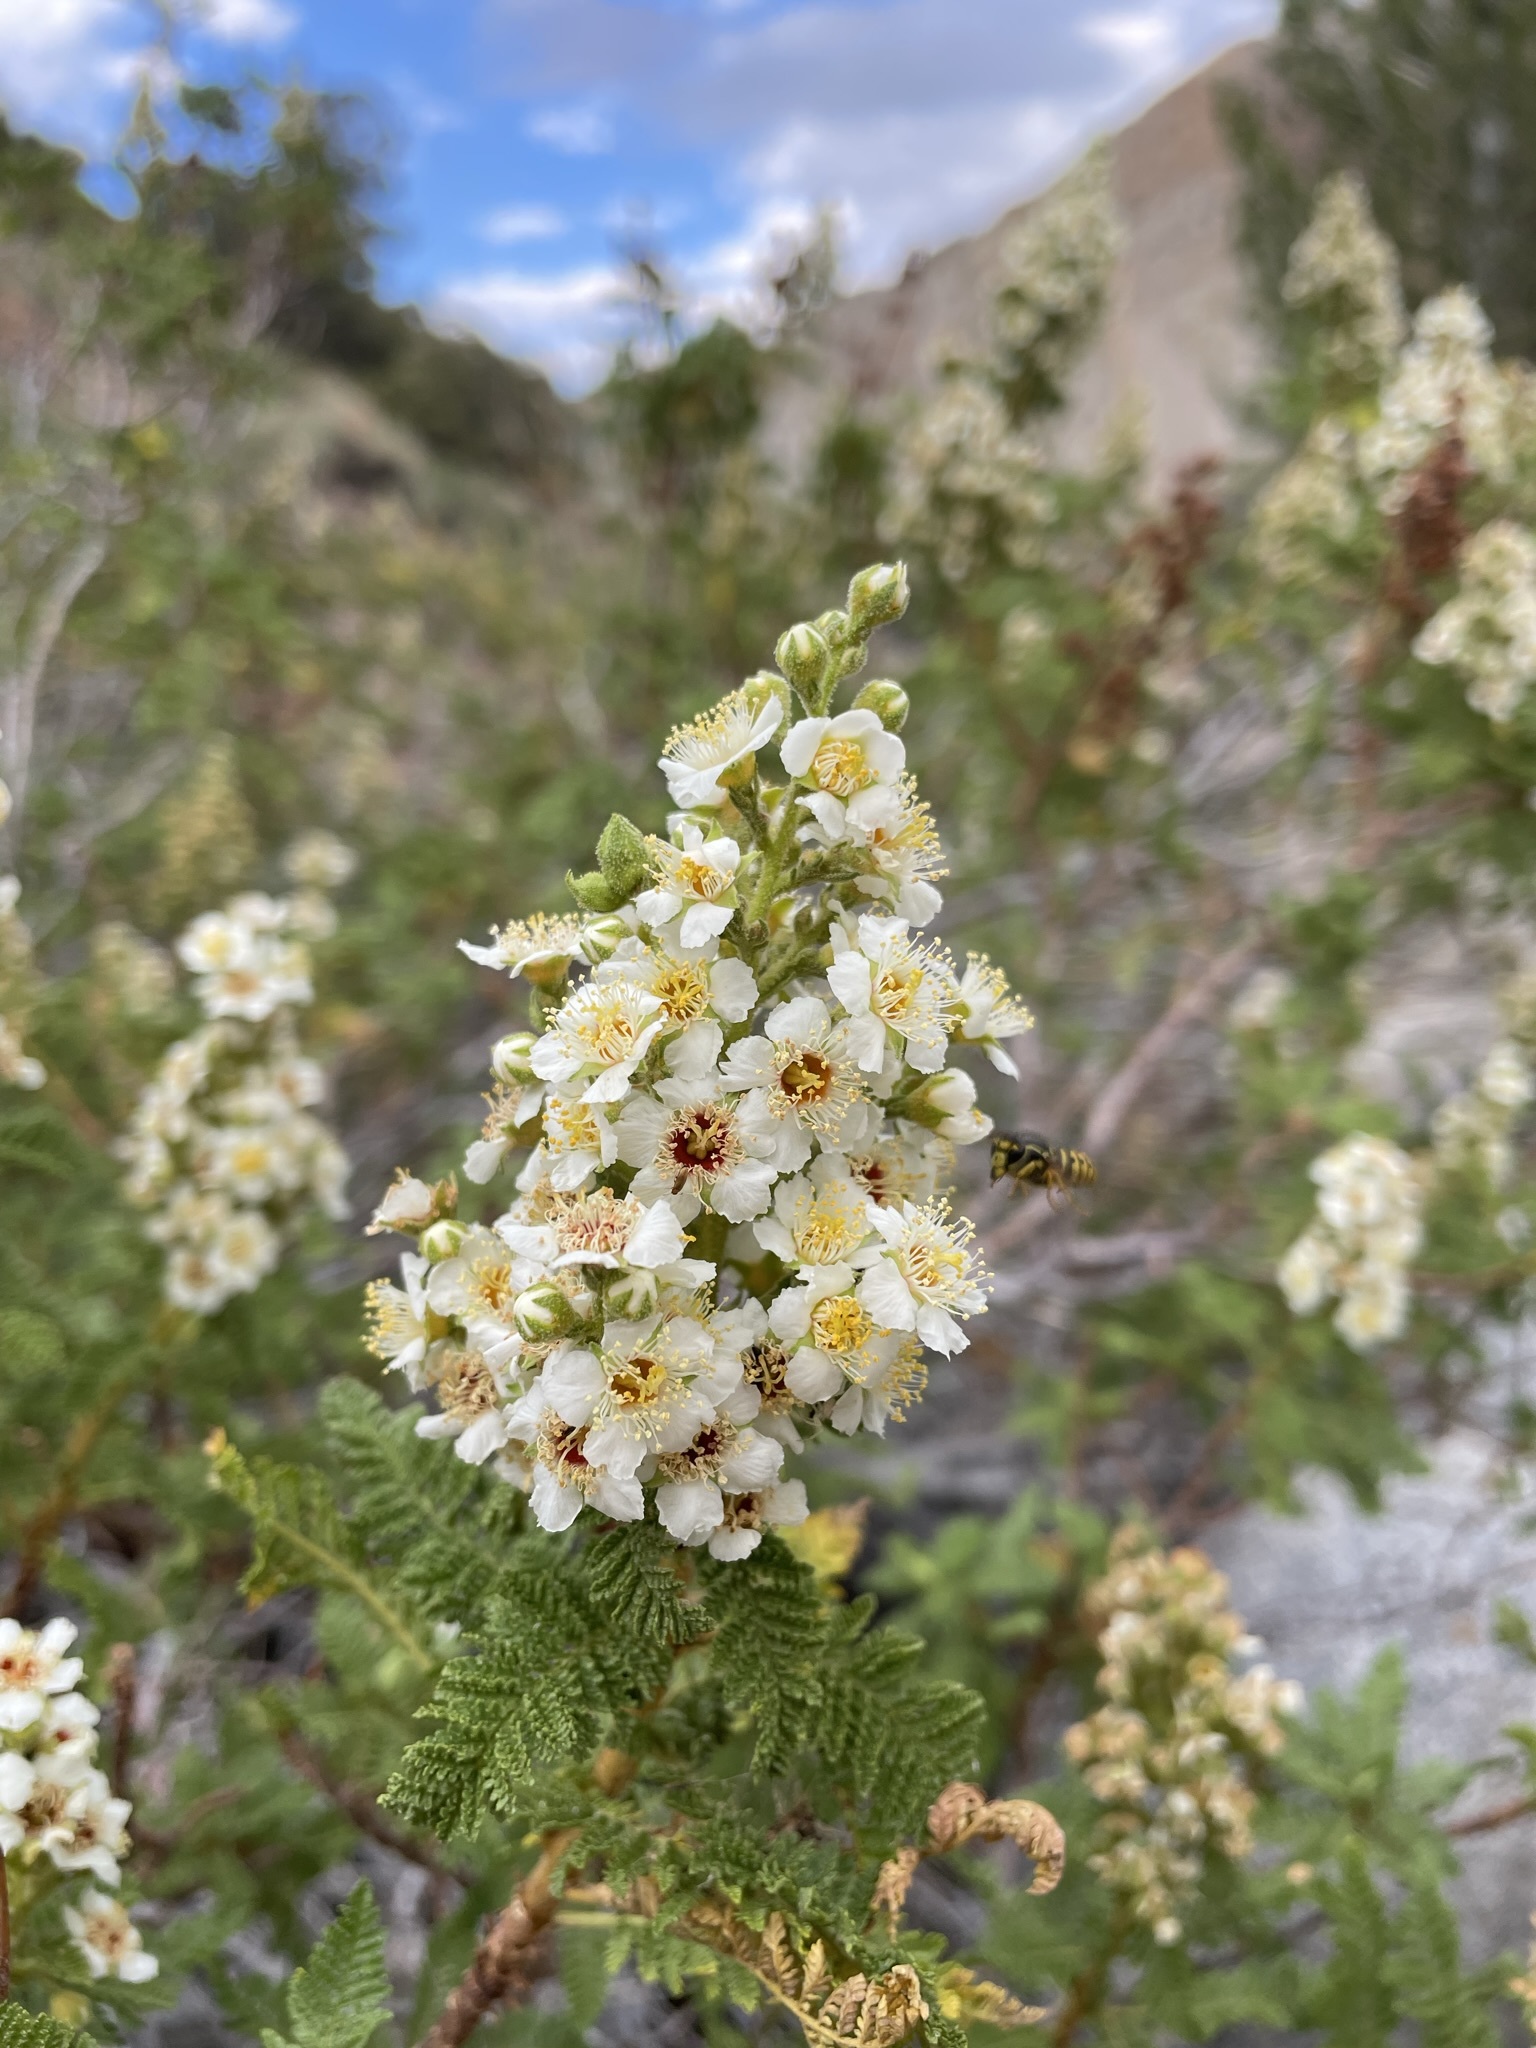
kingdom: Plantae
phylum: Tracheophyta
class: Magnoliopsida
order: Rosales
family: Rosaceae
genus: Chamaebatiaria
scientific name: Chamaebatiaria millefolium
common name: Fernbush
